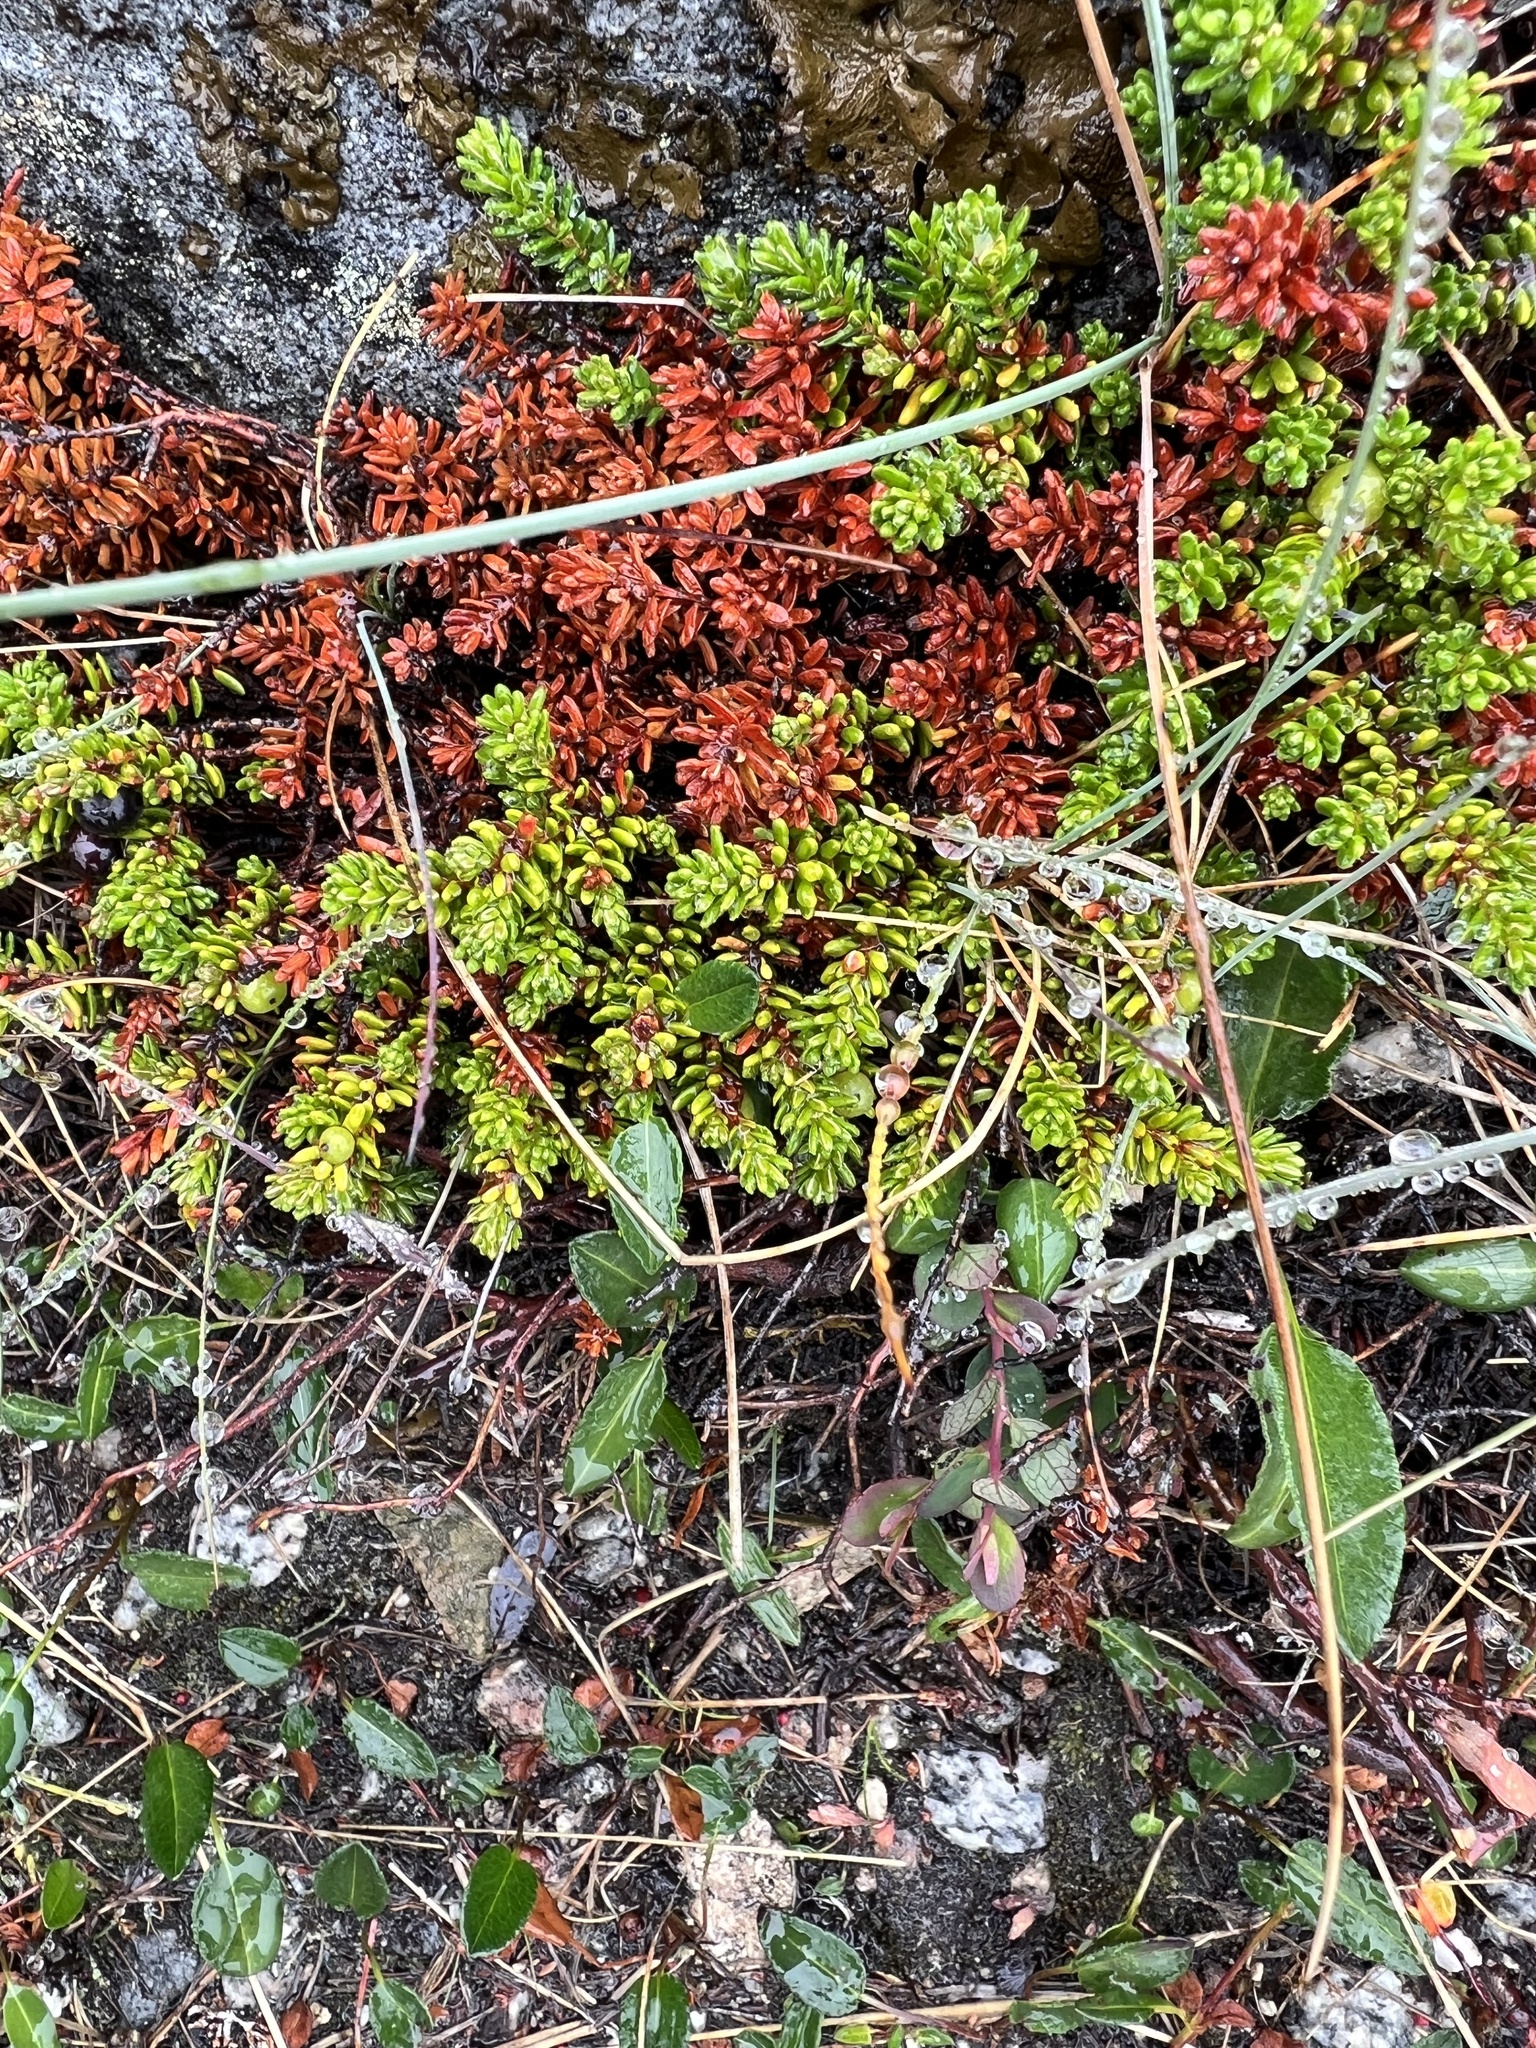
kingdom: Plantae
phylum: Tracheophyta
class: Magnoliopsida
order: Ericales
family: Ericaceae
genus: Empetrum
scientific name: Empetrum hermaphroditum
